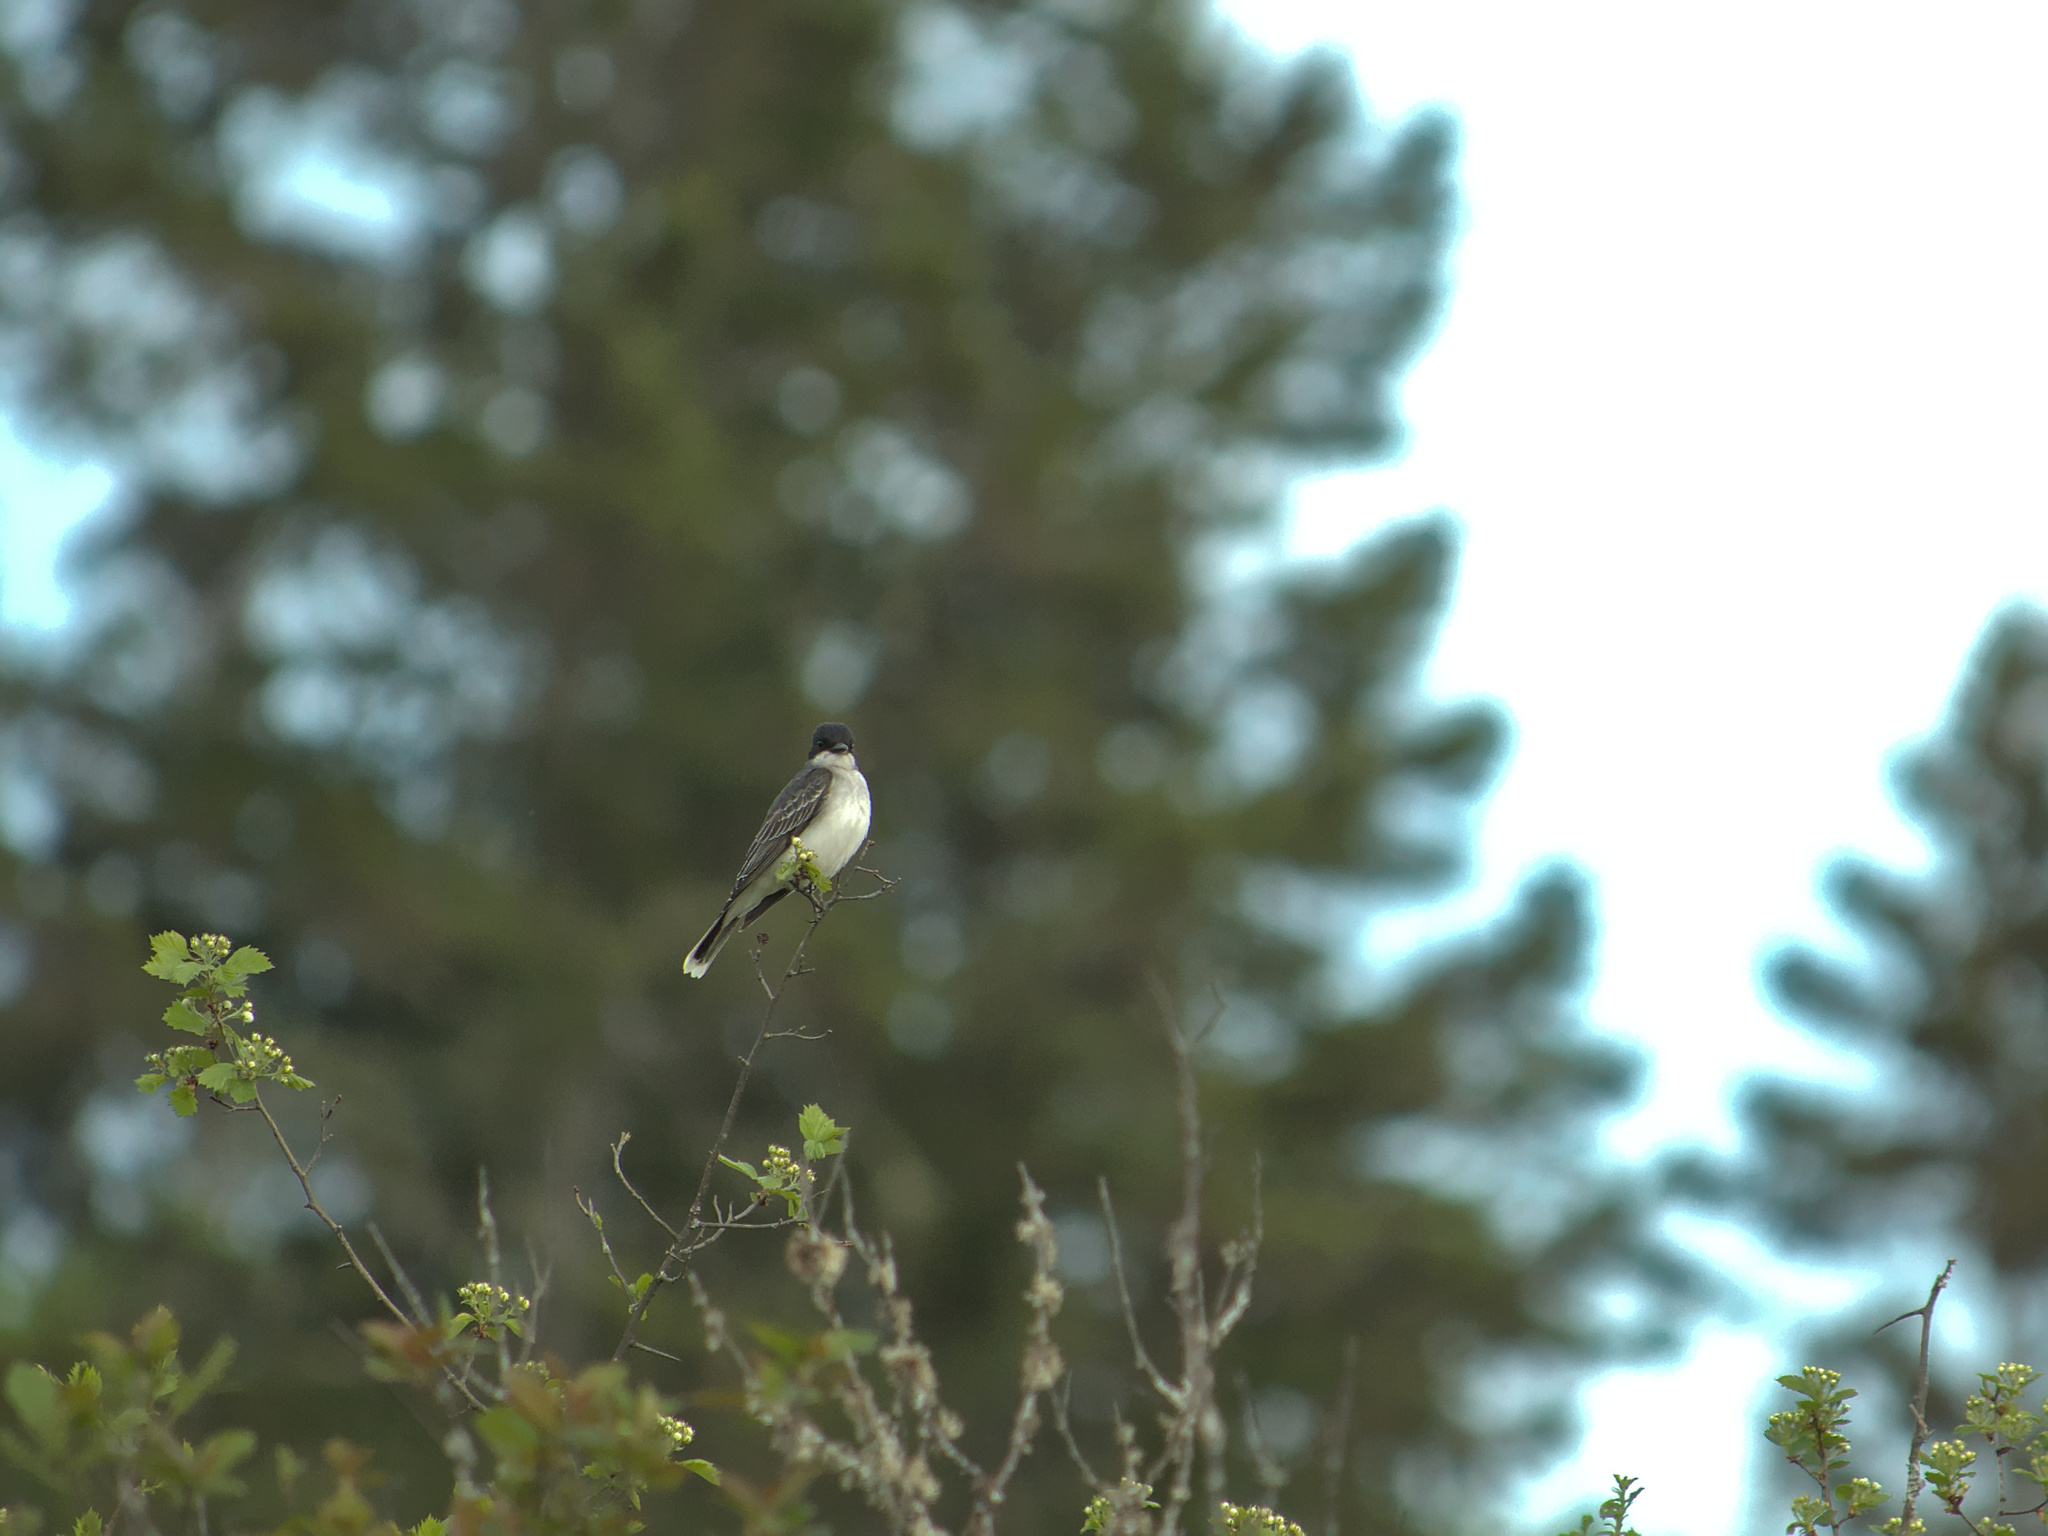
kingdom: Animalia
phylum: Chordata
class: Aves
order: Passeriformes
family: Tyrannidae
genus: Tyrannus
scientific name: Tyrannus tyrannus
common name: Eastern kingbird
